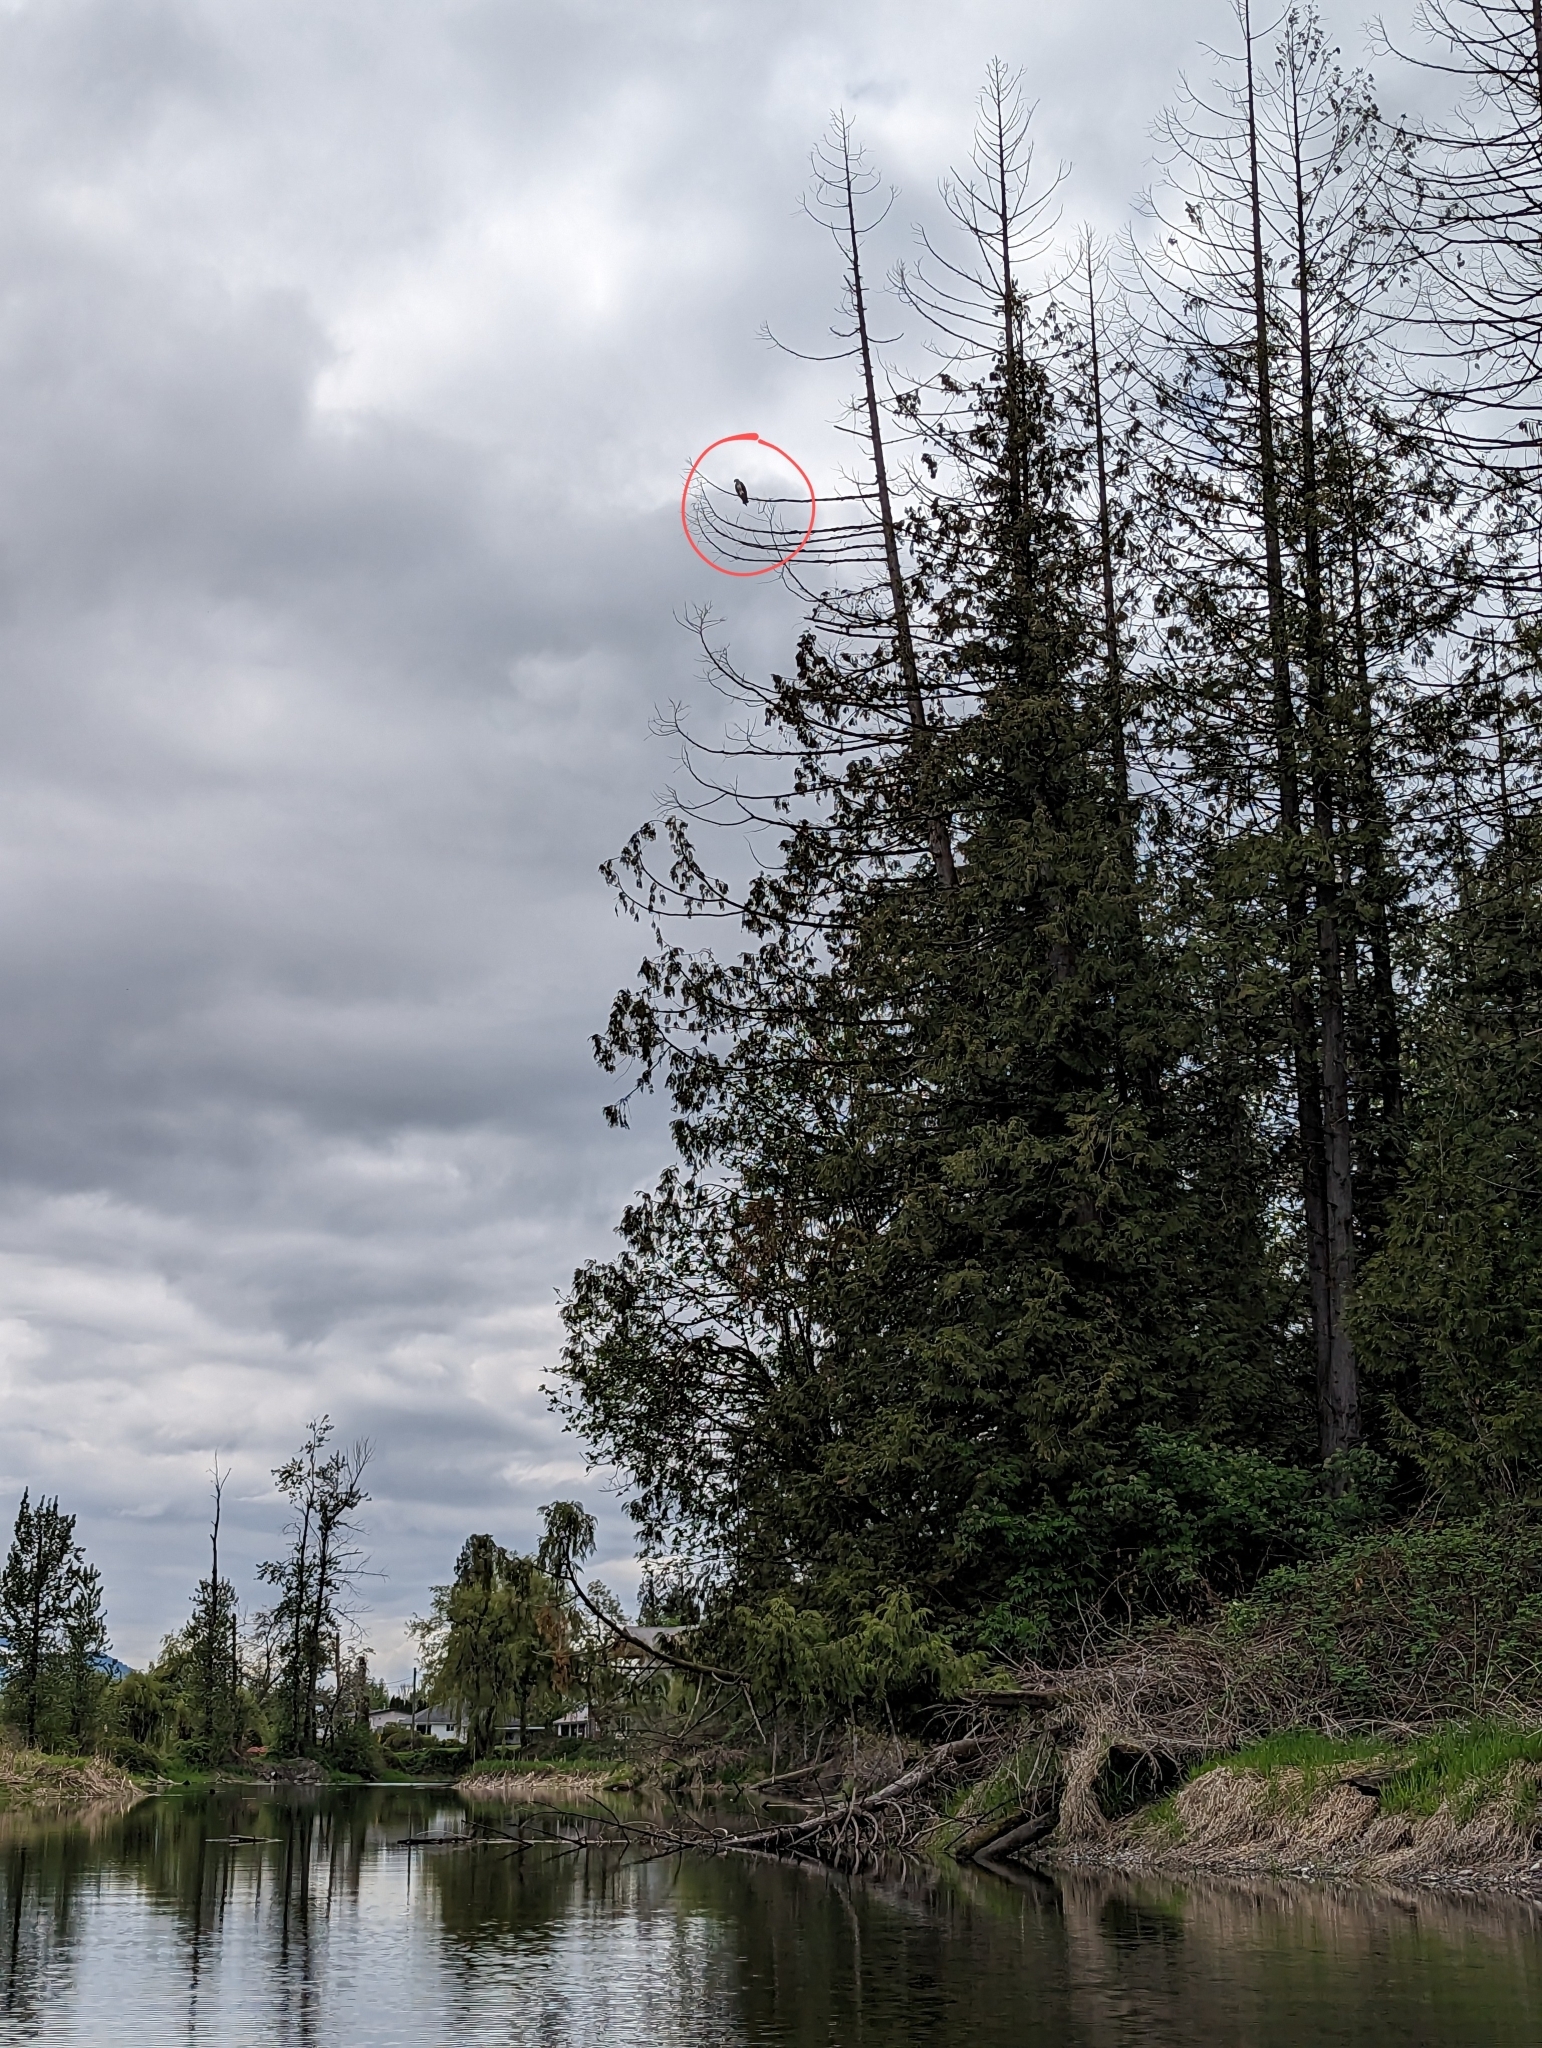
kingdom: Animalia
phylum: Chordata
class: Aves
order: Accipitriformes
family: Pandionidae
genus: Pandion
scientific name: Pandion haliaetus
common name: Osprey
